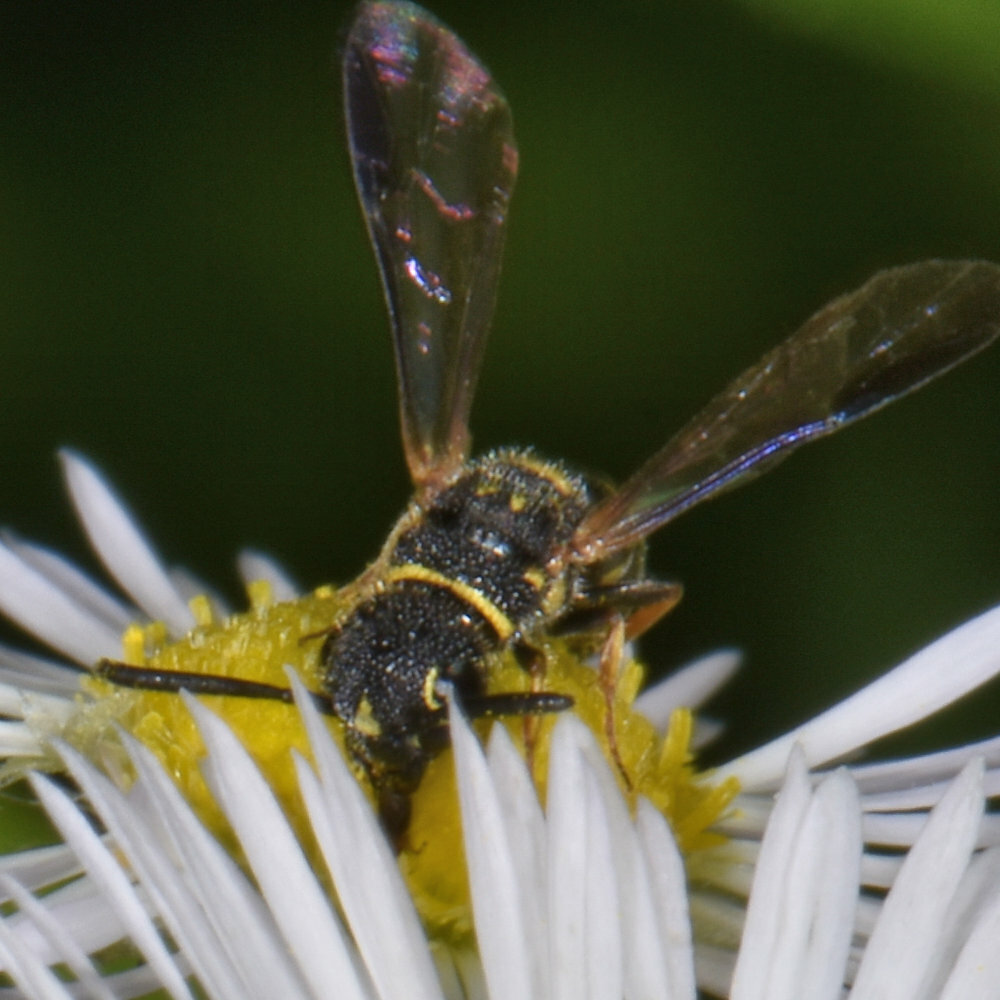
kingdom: Animalia
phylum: Arthropoda
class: Insecta
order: Hymenoptera
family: Sapygidae
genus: Sapyga
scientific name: Sapyga louisi
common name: Louis's club-horned cuckoo wasp
